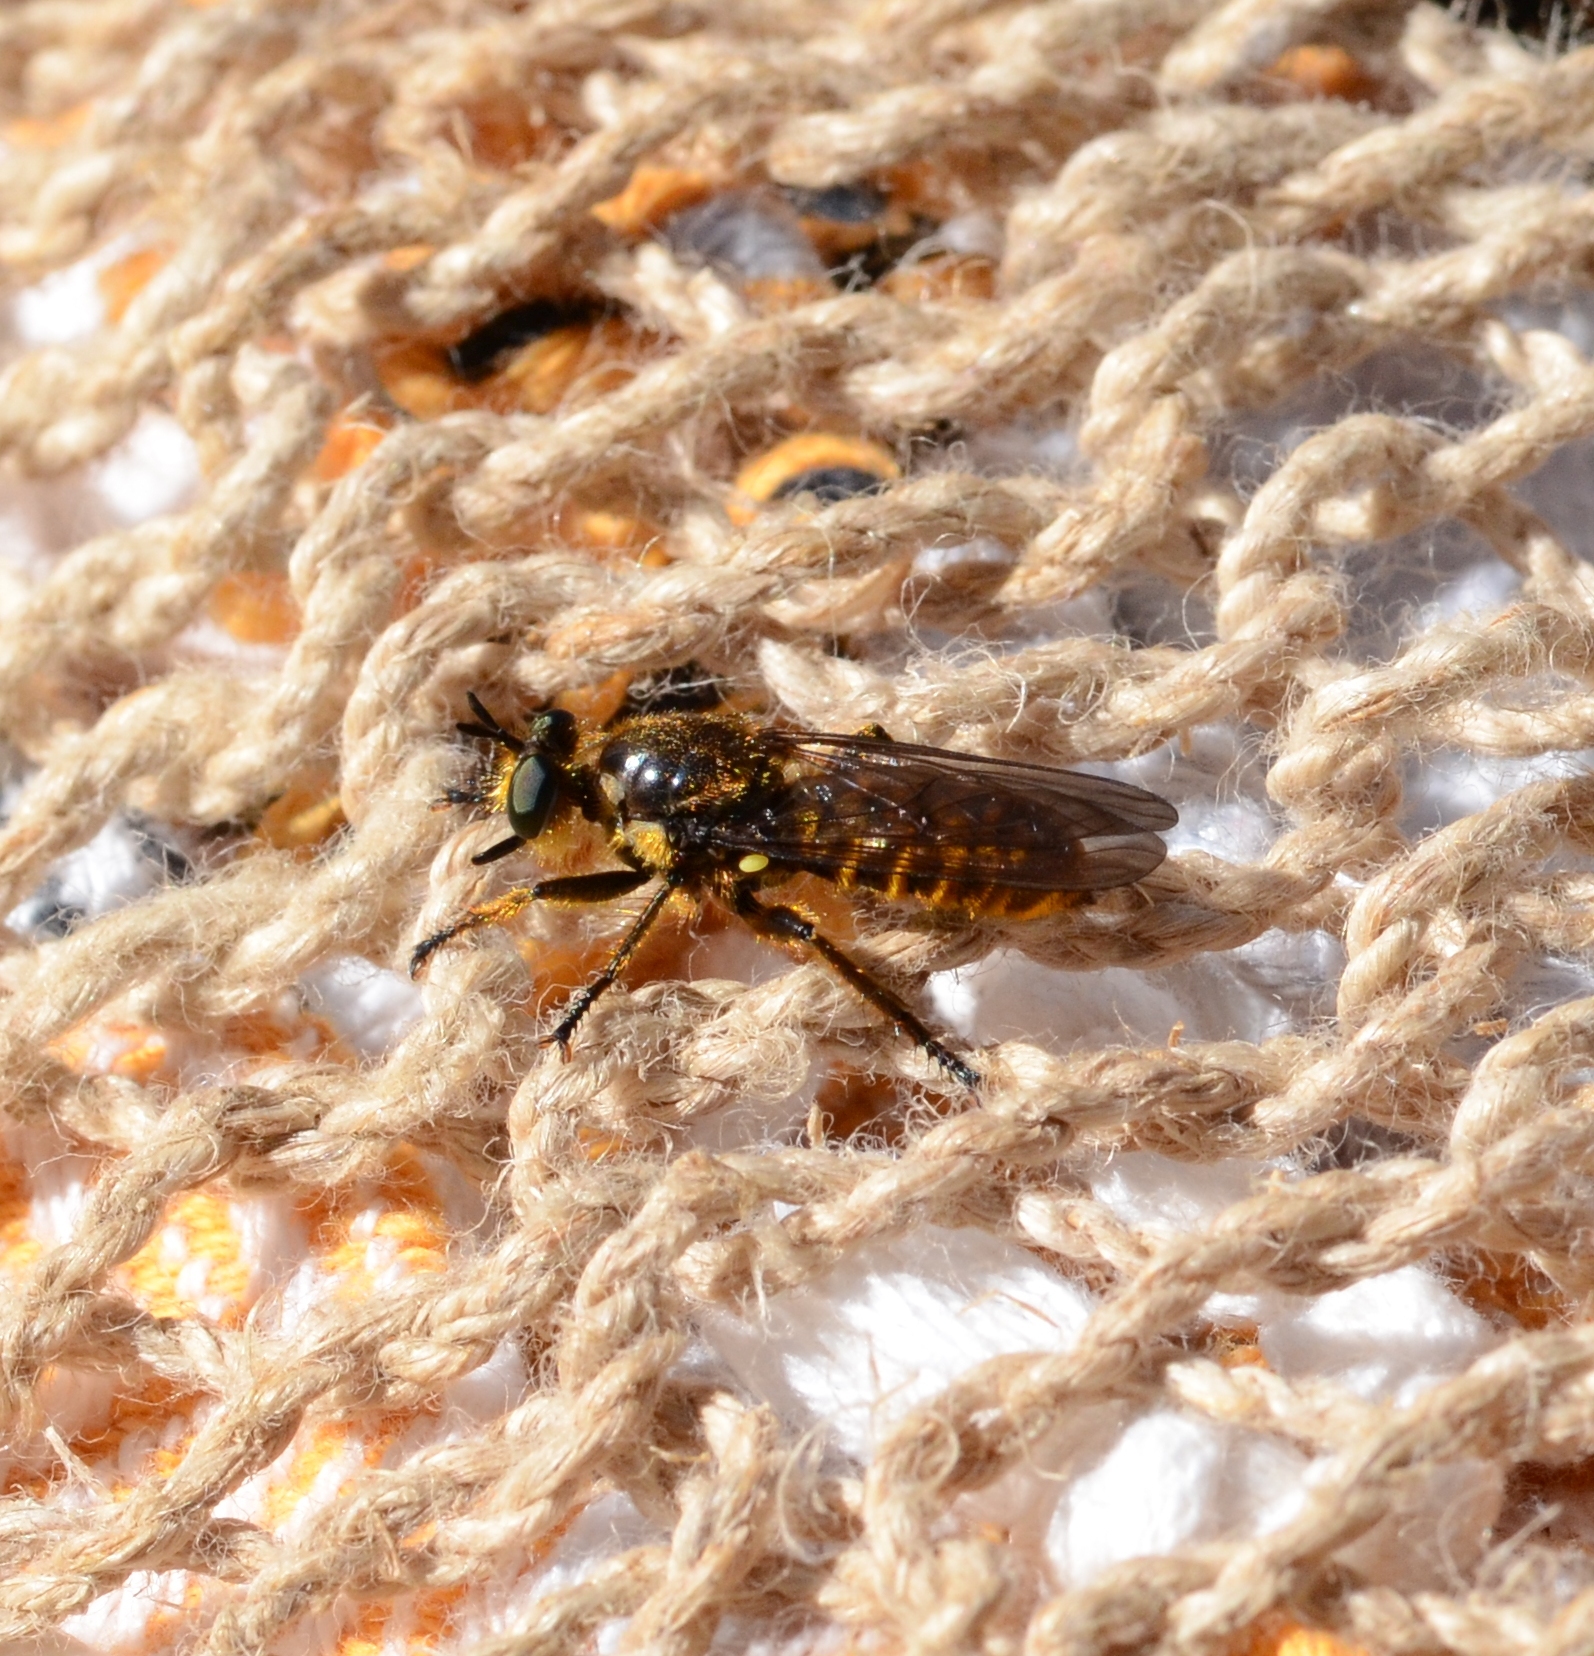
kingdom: Animalia
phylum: Arthropoda
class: Insecta
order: Diptera
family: Asilidae
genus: Lamyra
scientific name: Lamyra fimbriata
